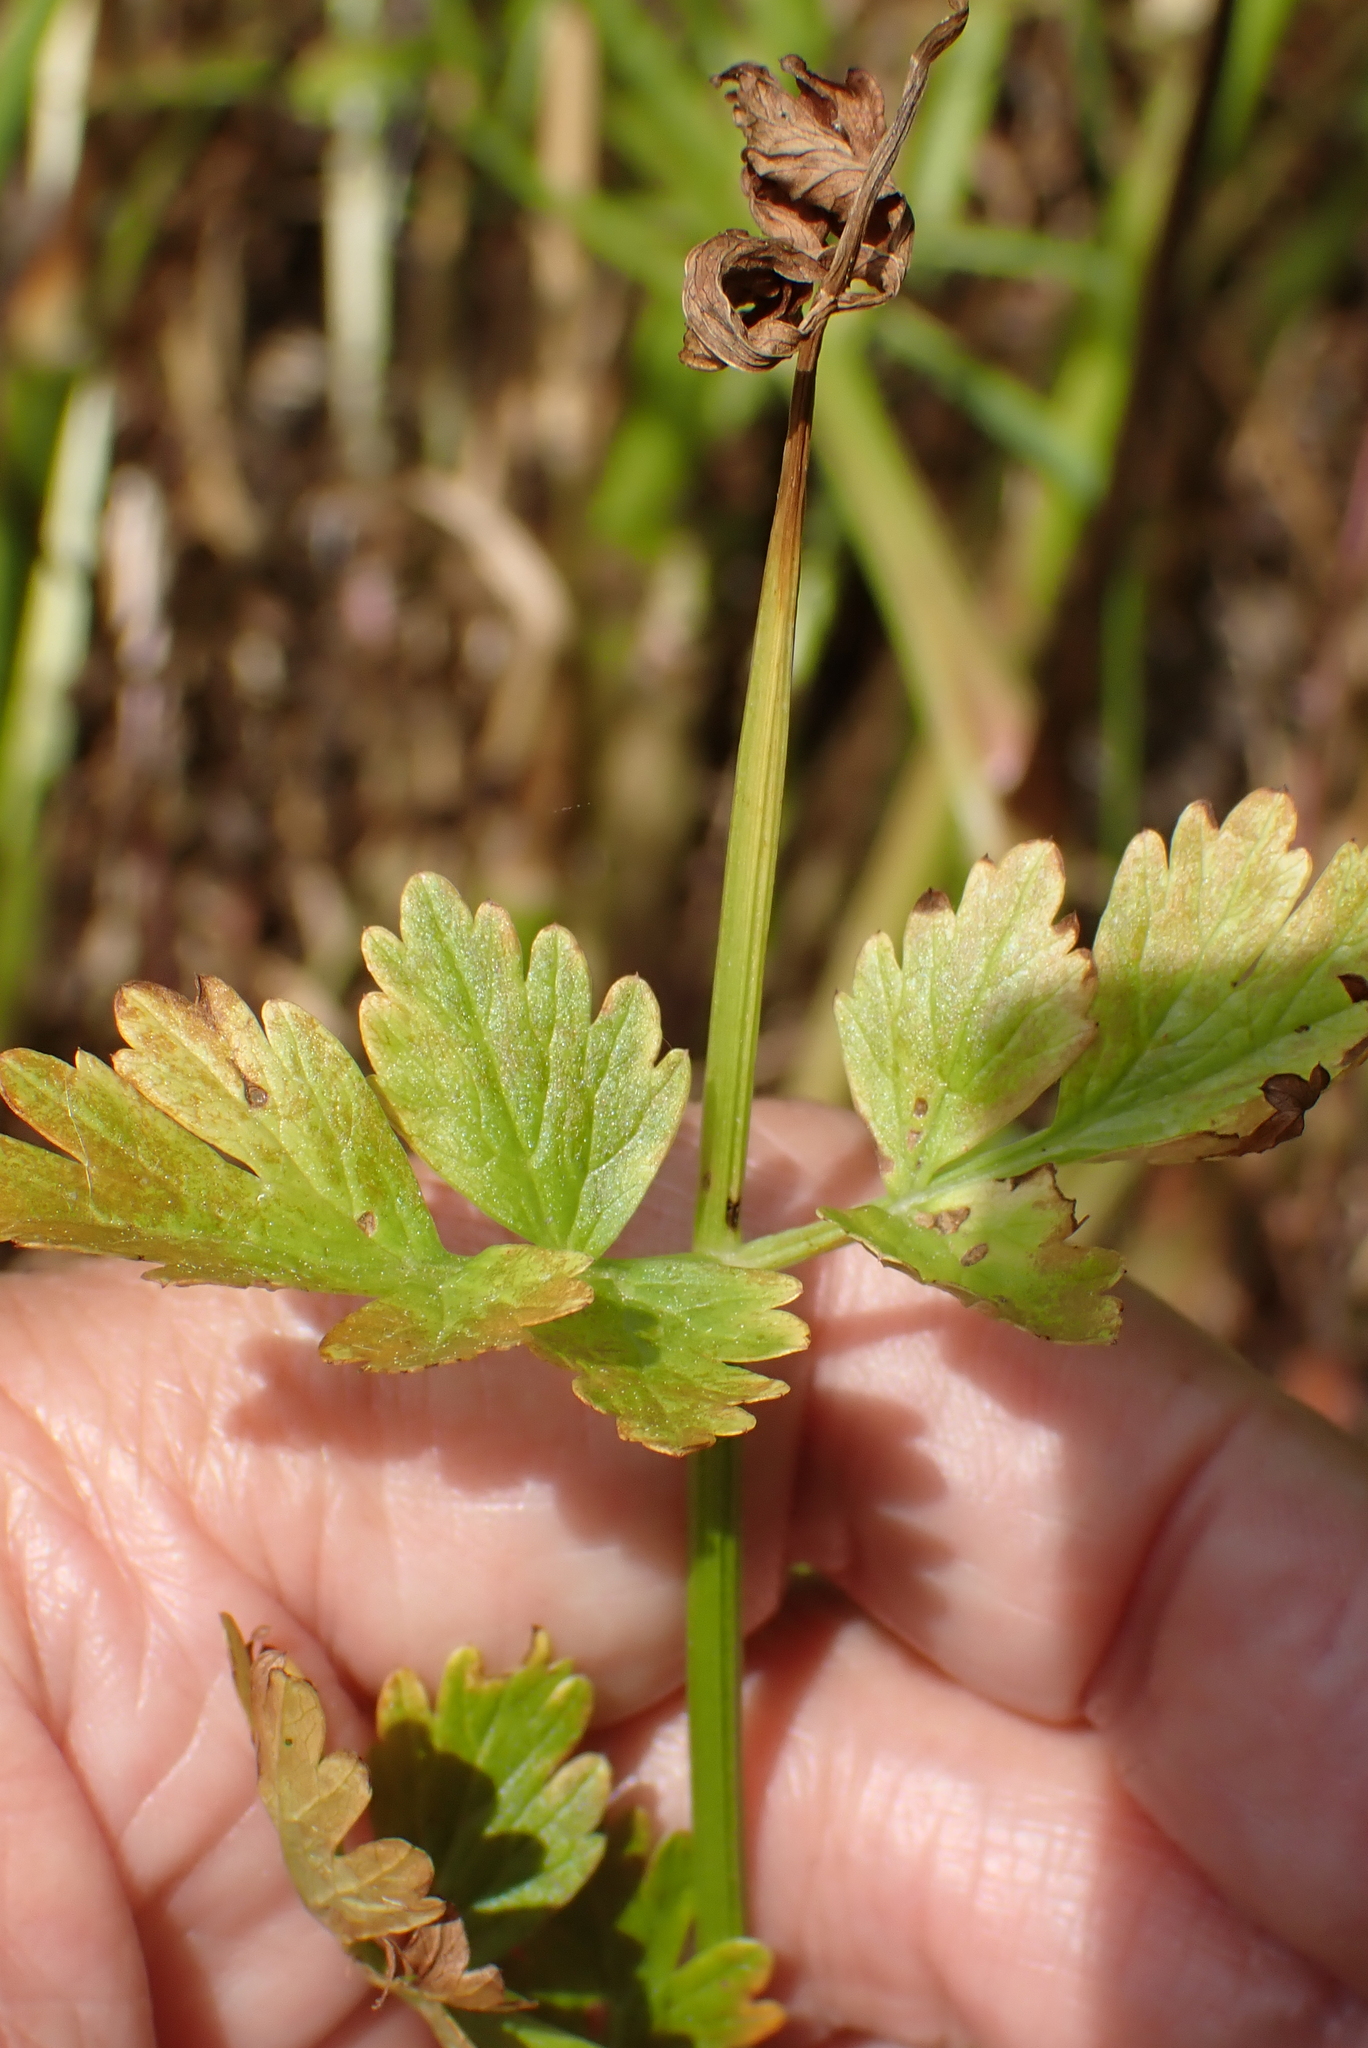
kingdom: Plantae
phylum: Tracheophyta
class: Magnoliopsida
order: Apiales
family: Apiaceae
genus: Oenanthe
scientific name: Oenanthe crocata
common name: Hemlock water-dropwort
